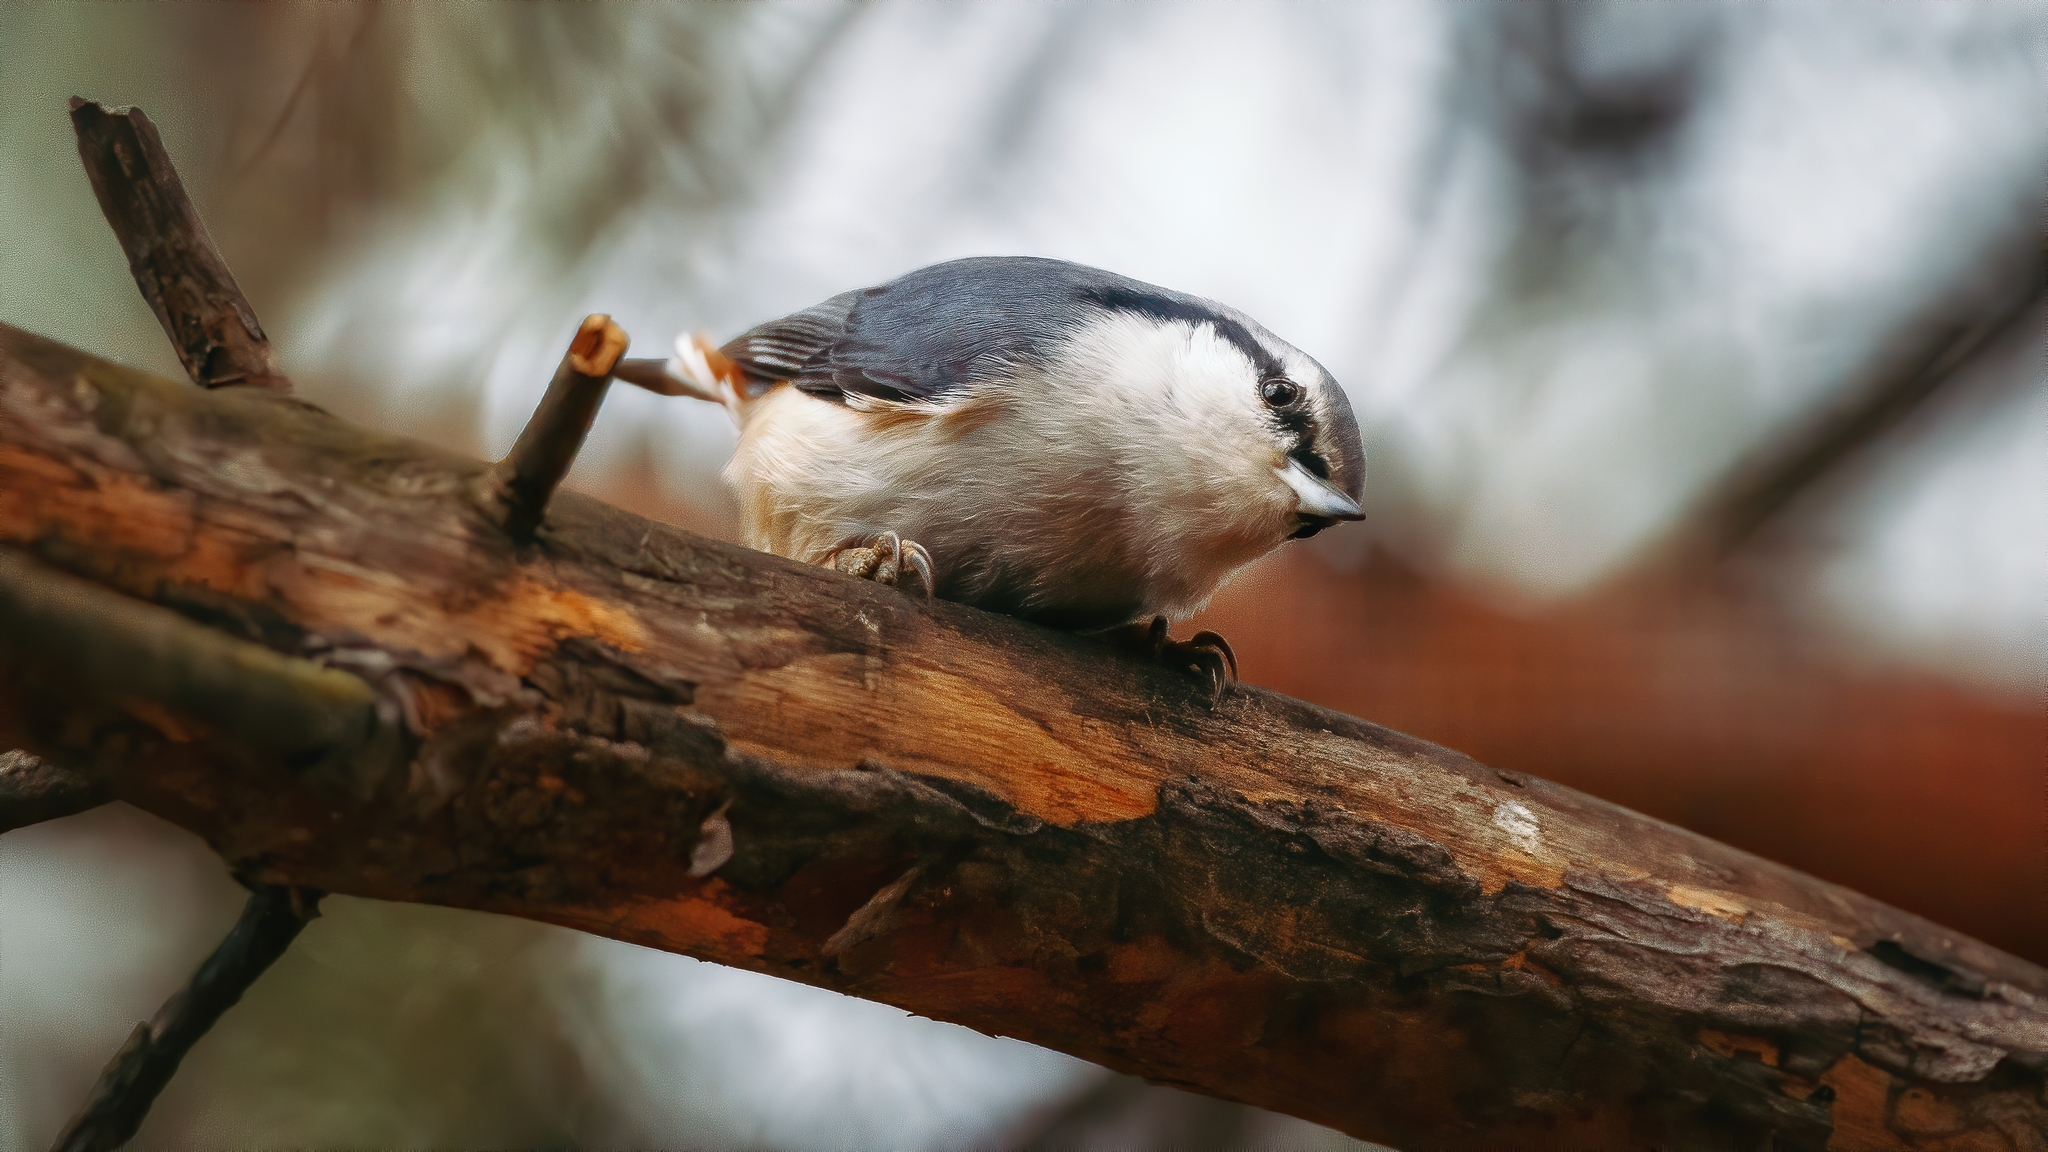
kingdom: Animalia
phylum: Chordata
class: Aves
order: Passeriformes
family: Sittidae
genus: Sitta
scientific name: Sitta europaea
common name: Eurasian nuthatch
